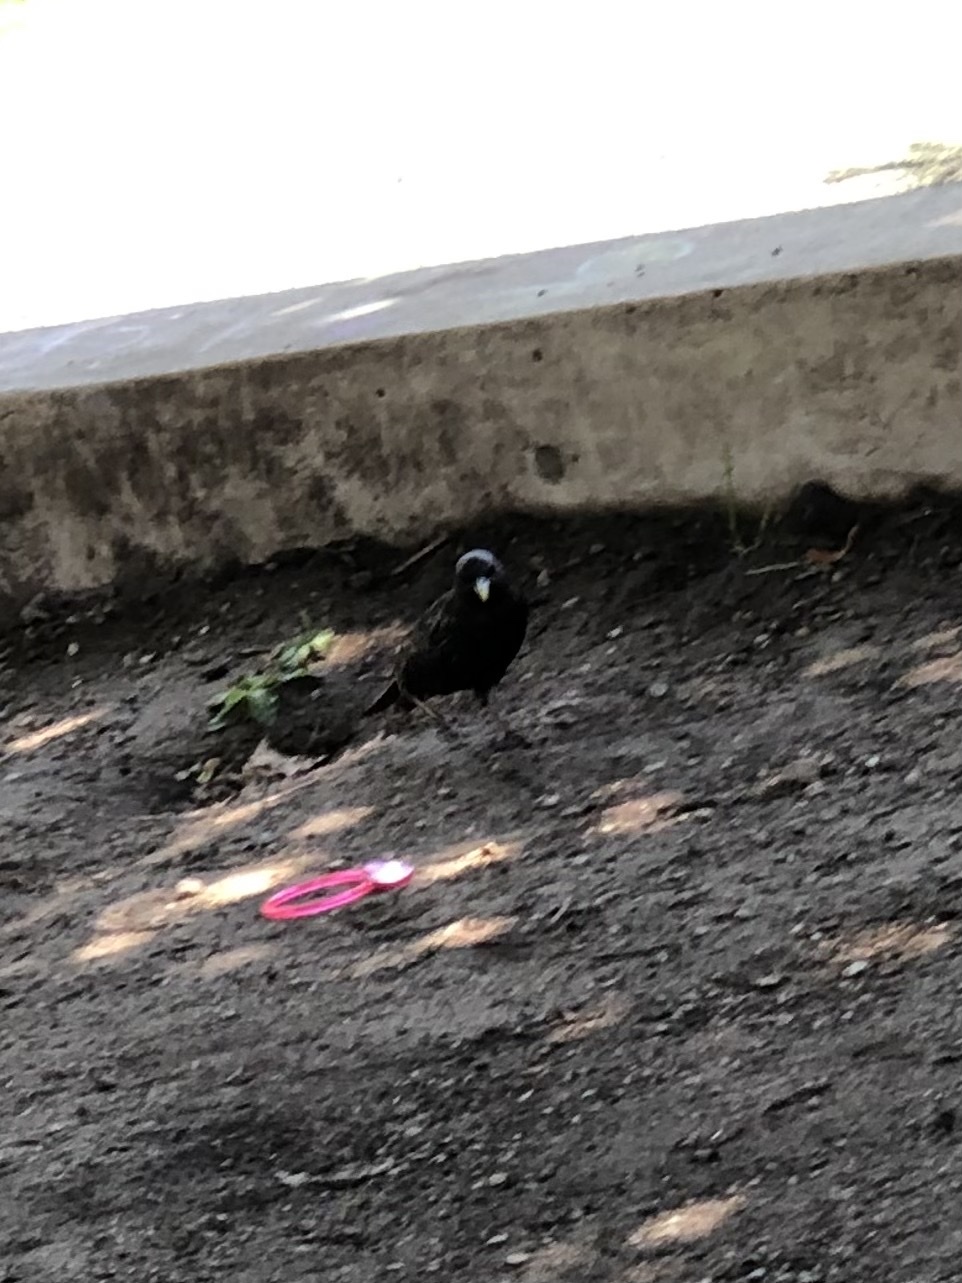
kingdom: Animalia
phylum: Chordata
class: Aves
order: Passeriformes
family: Sturnidae
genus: Sturnus
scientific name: Sturnus vulgaris
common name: Common starling
